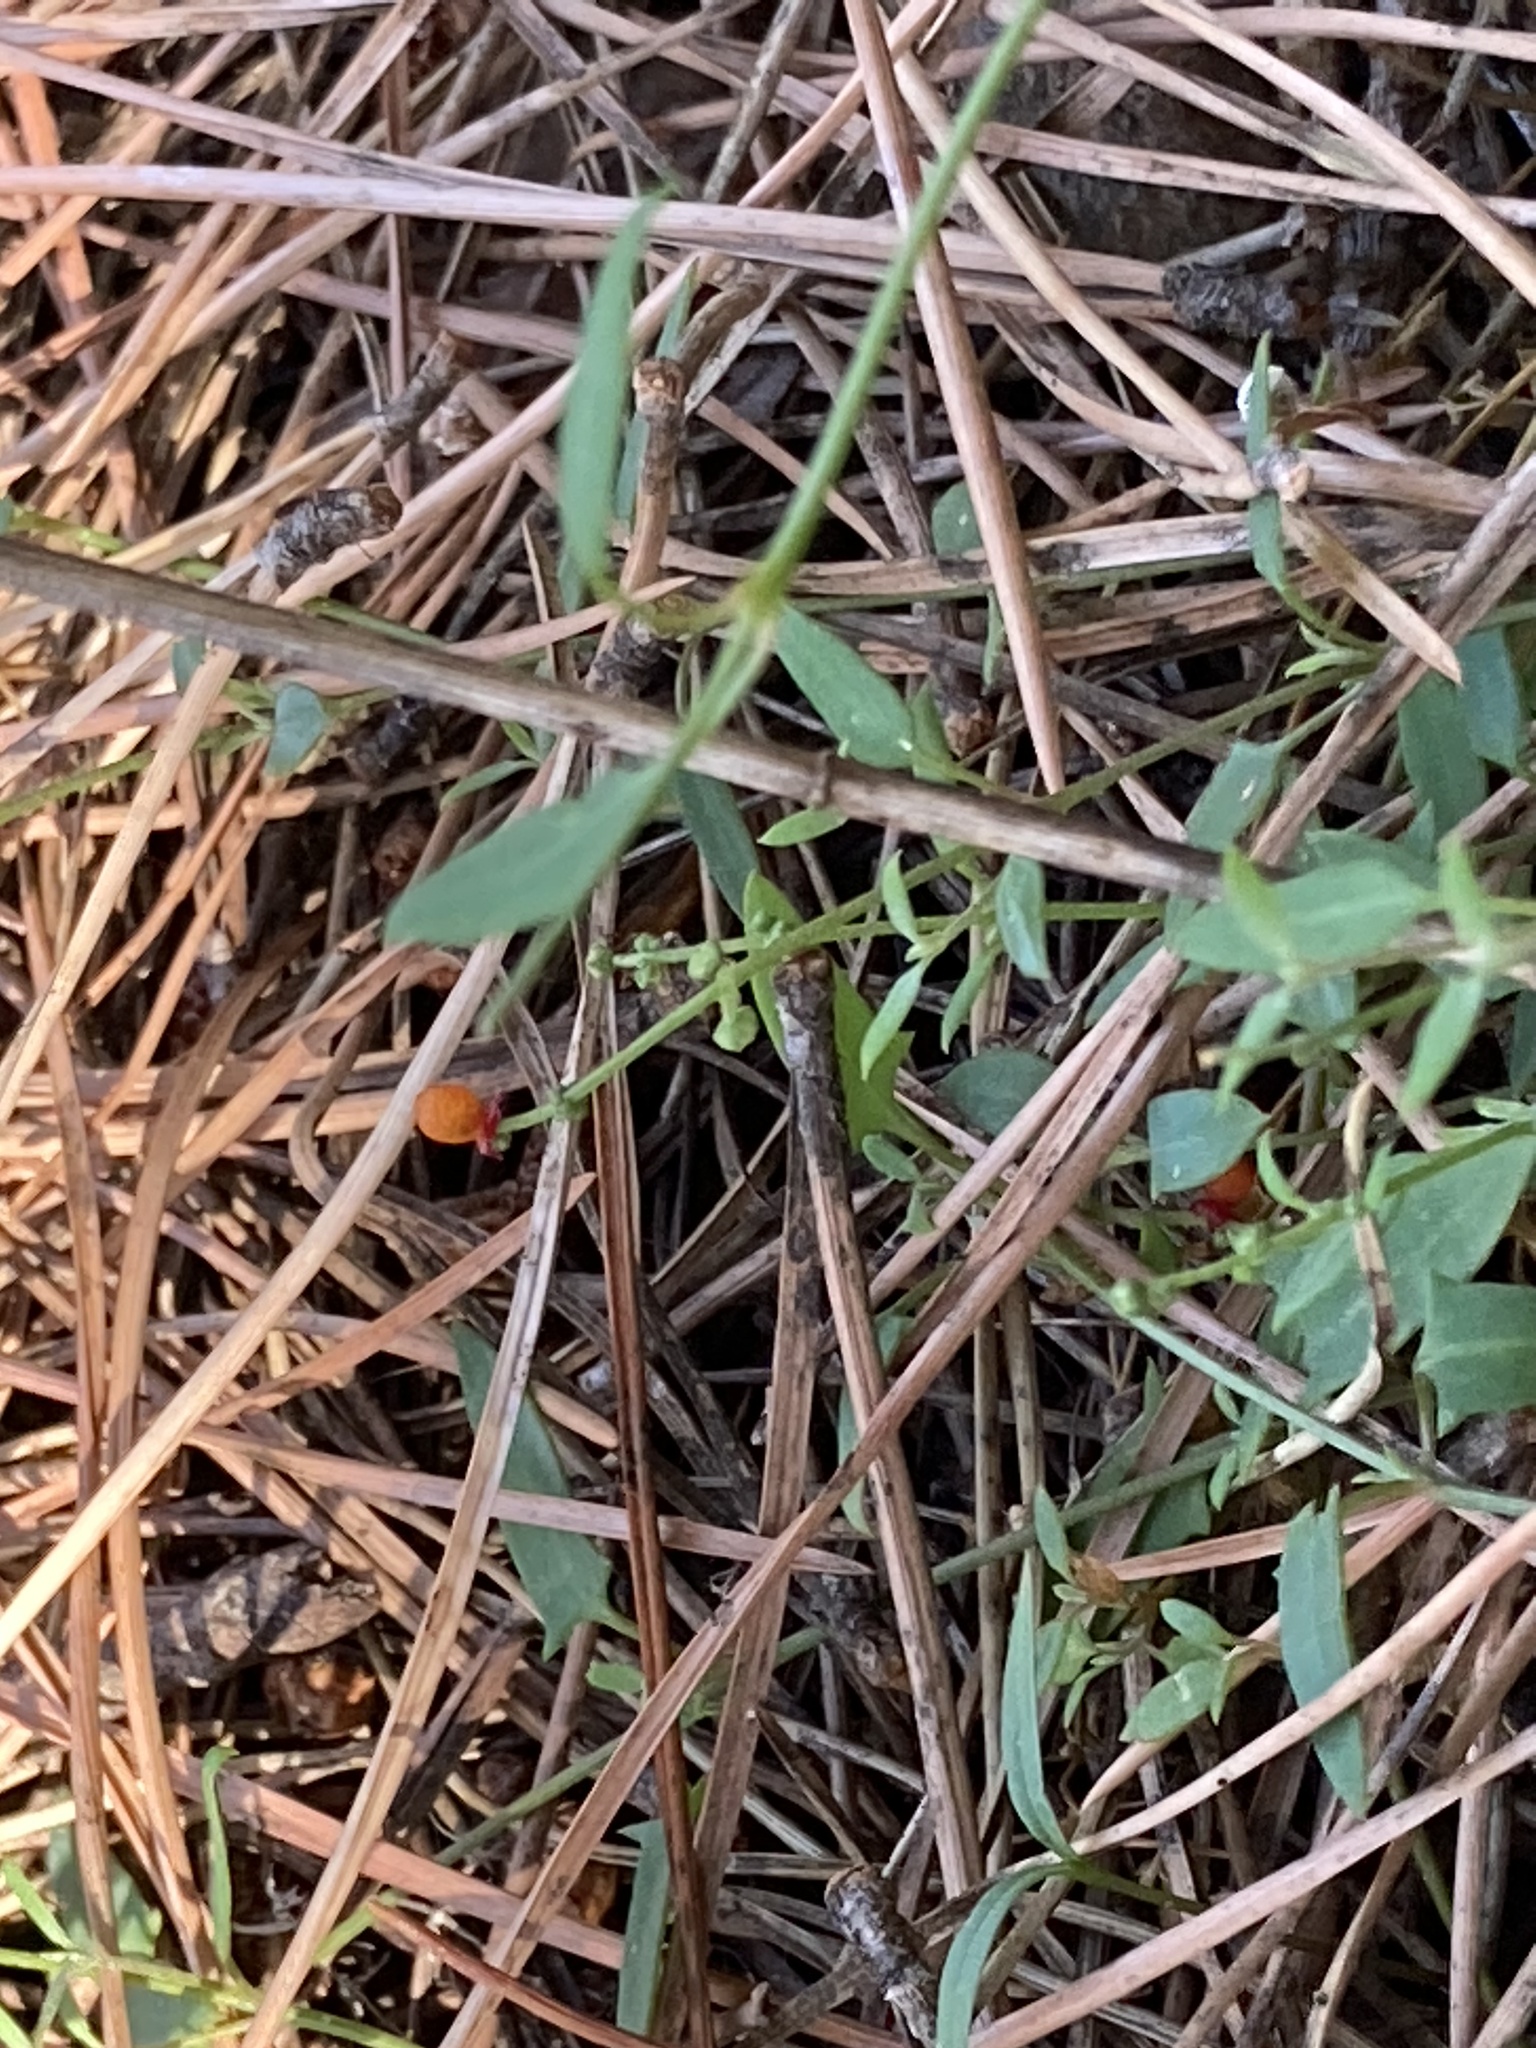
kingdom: Plantae
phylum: Tracheophyta
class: Magnoliopsida
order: Caryophyllales
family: Amaranthaceae
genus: Chenopodium
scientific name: Chenopodium nutans
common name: Climbing-saltbush
